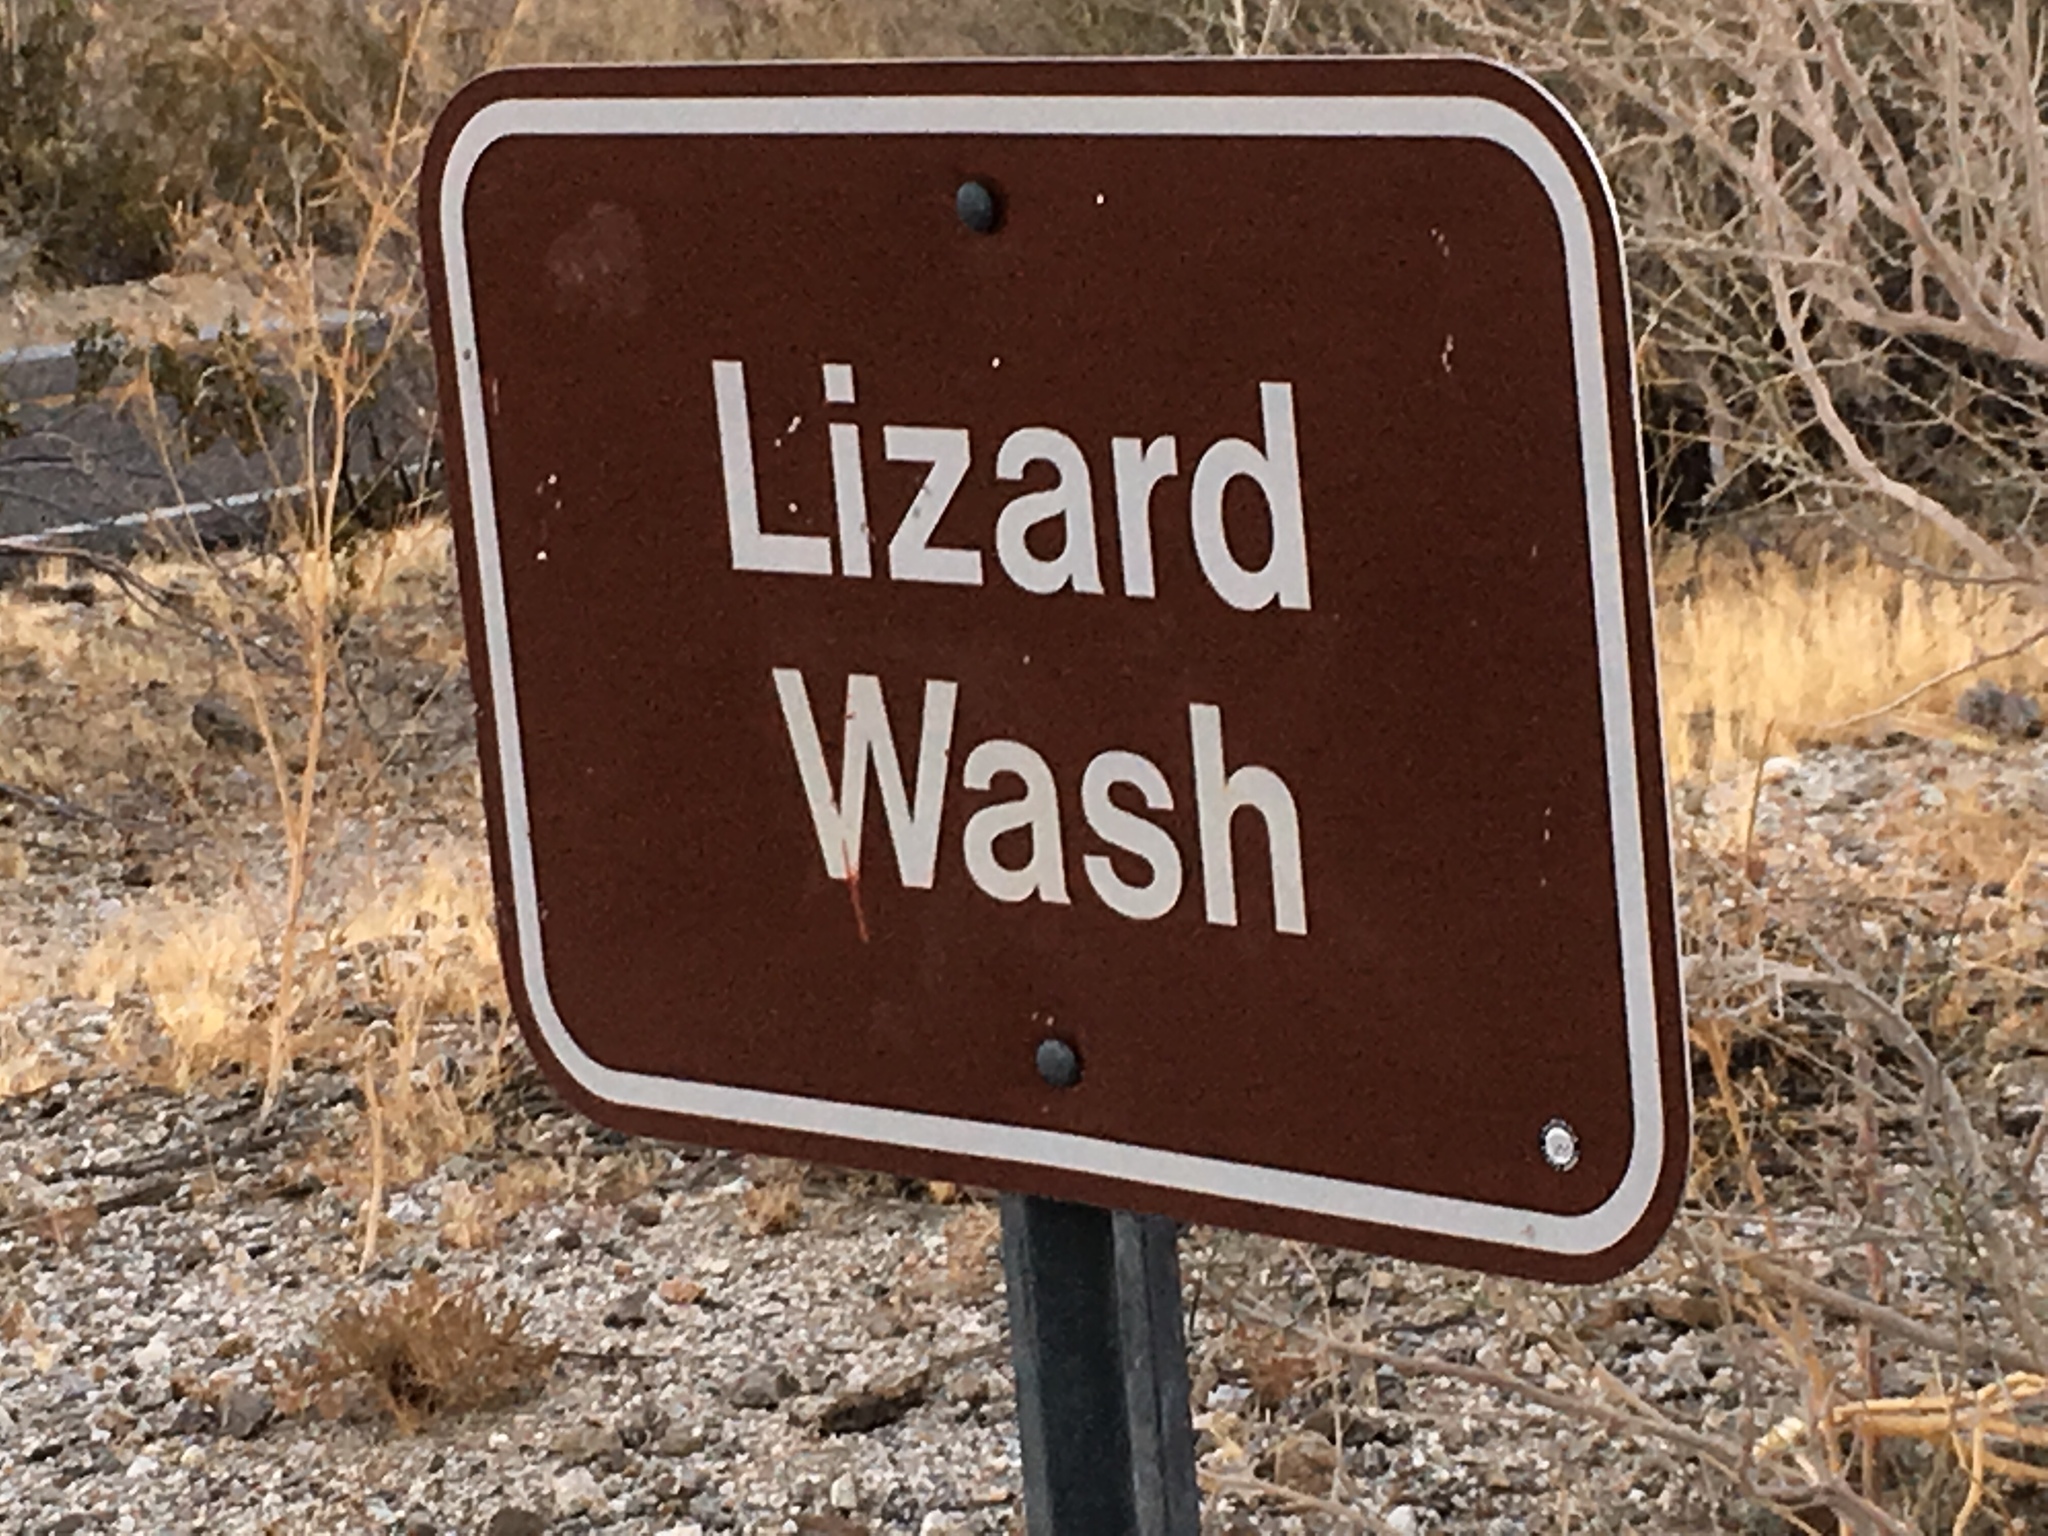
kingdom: Plantae
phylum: Tracheophyta
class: Magnoliopsida
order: Caryophyllales
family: Cactaceae
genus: Cylindropuntia
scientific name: Cylindropuntia fosbergii
